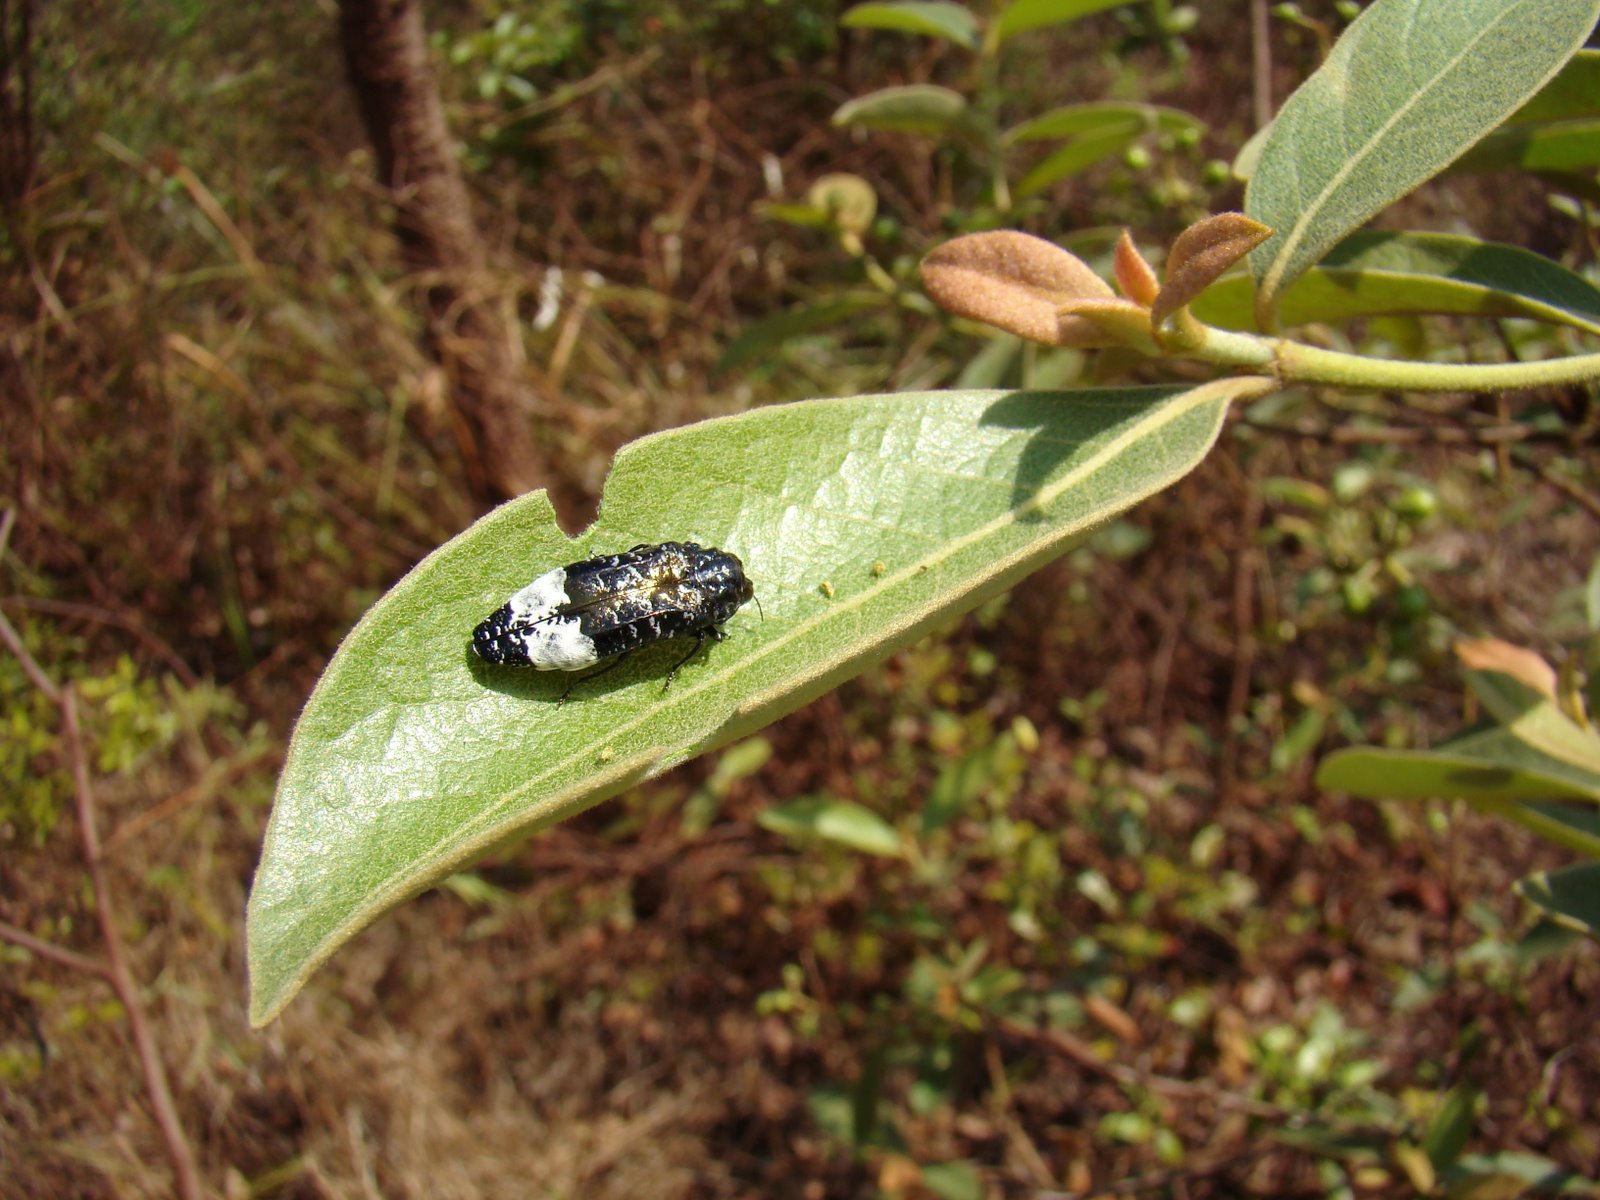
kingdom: Animalia
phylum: Arthropoda
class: Insecta
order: Coleoptera
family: Buprestidae
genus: Autarcontes
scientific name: Autarcontes mucoreus
